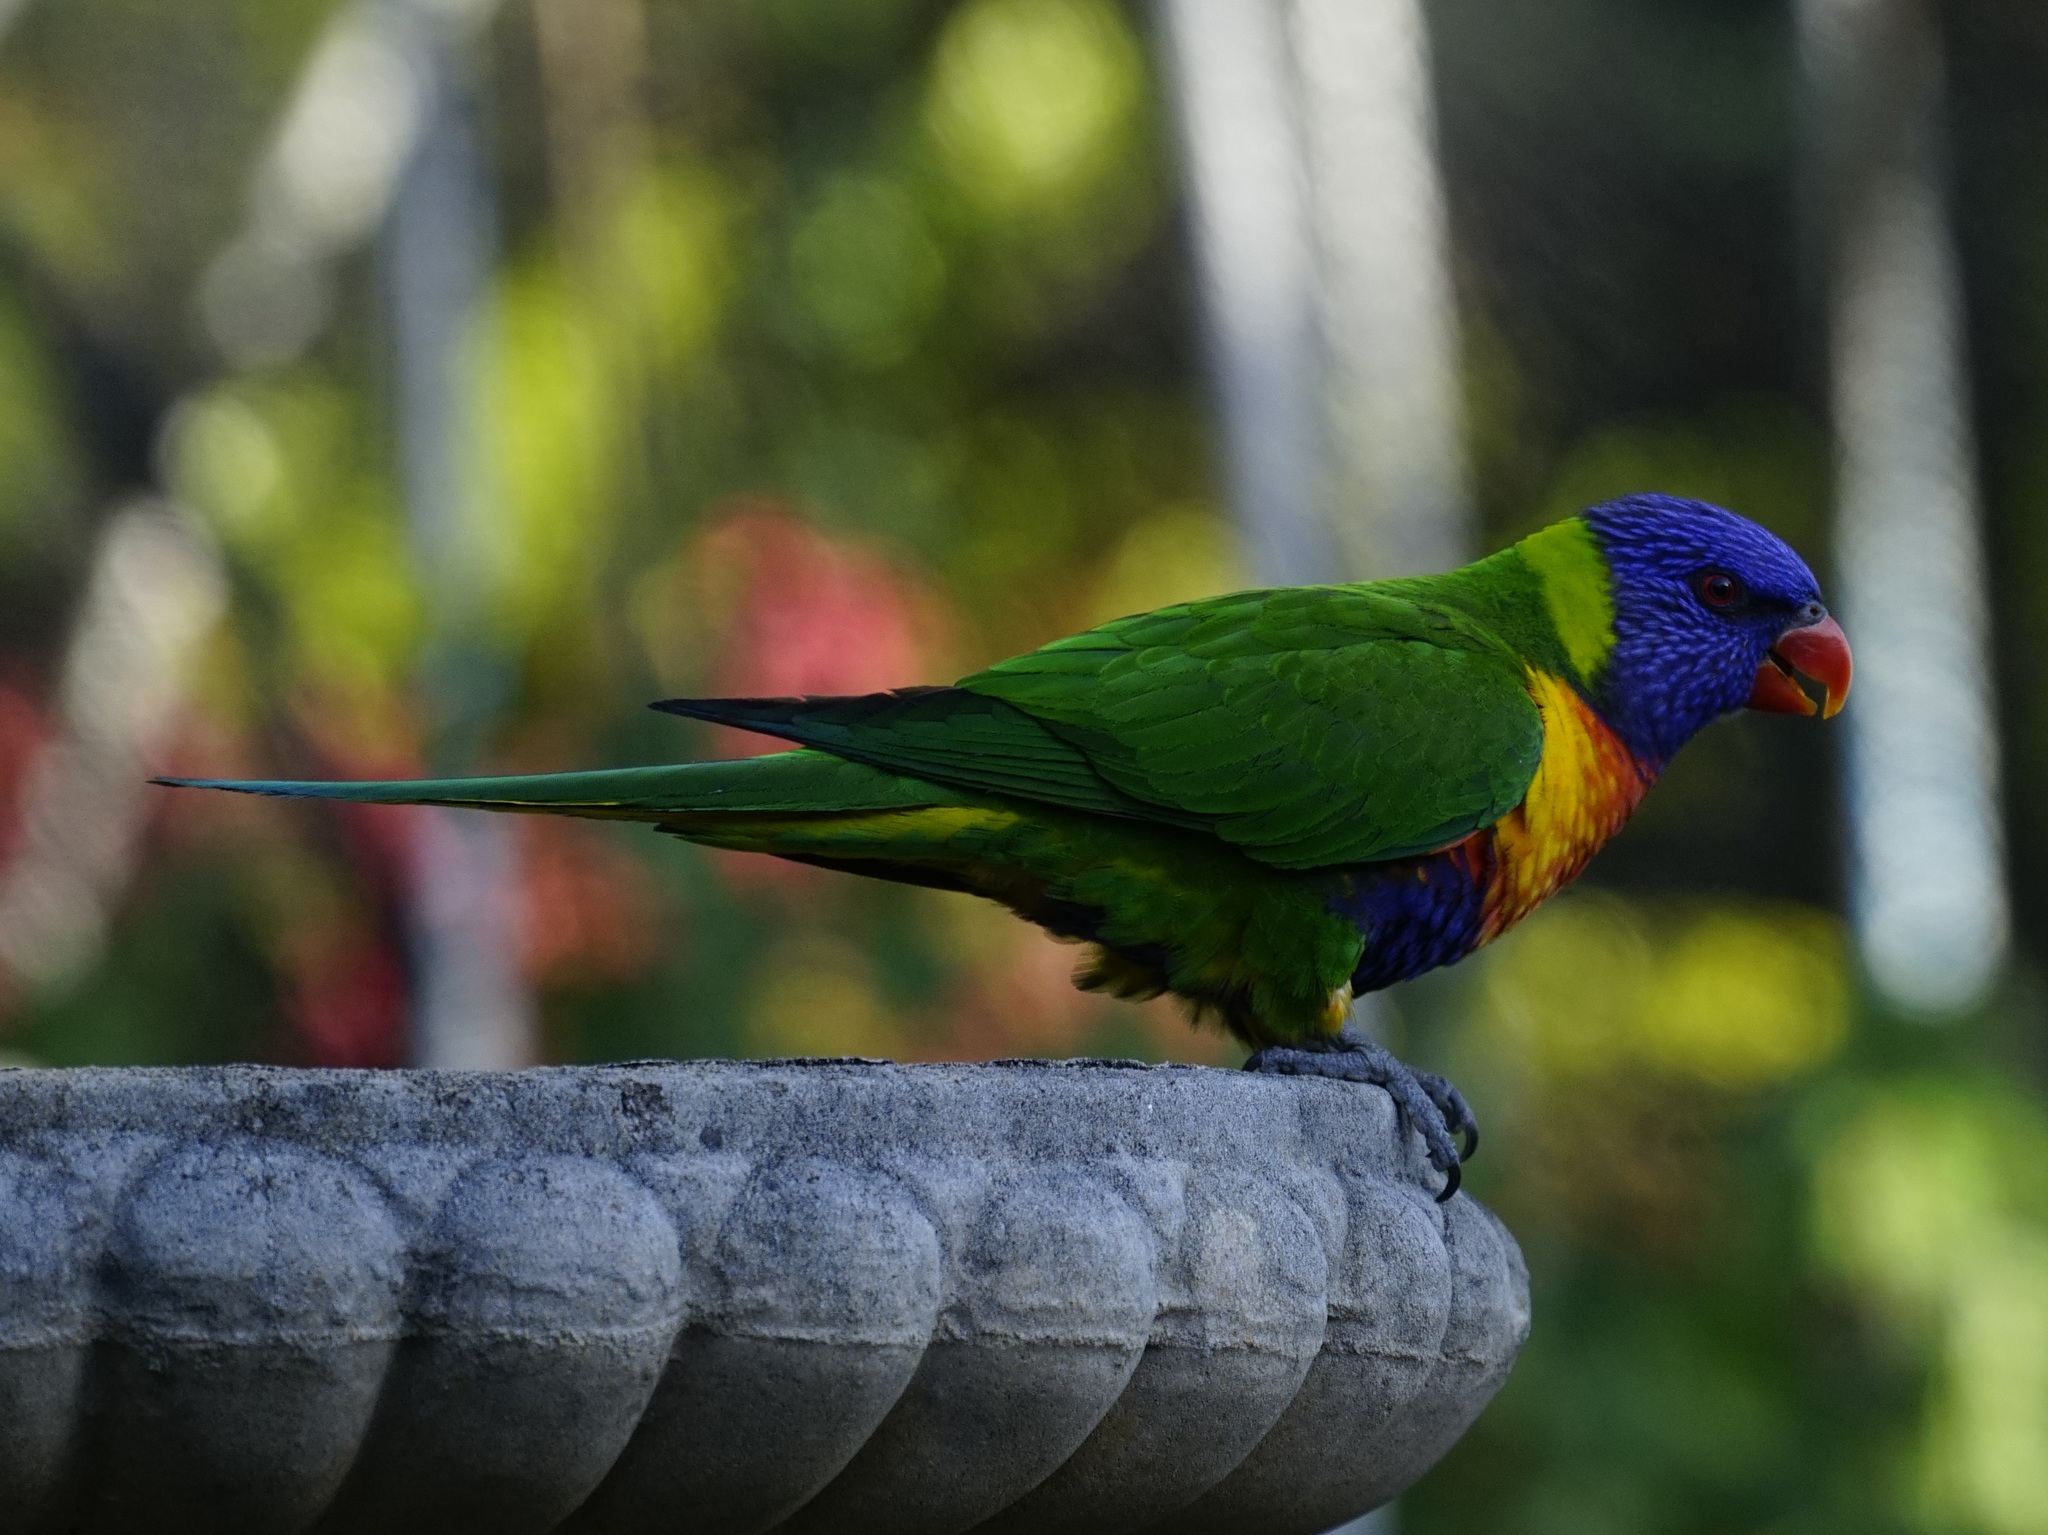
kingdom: Animalia
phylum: Chordata
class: Aves
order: Psittaciformes
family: Psittacidae
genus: Trichoglossus
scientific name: Trichoglossus haematodus
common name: Coconut lorikeet
